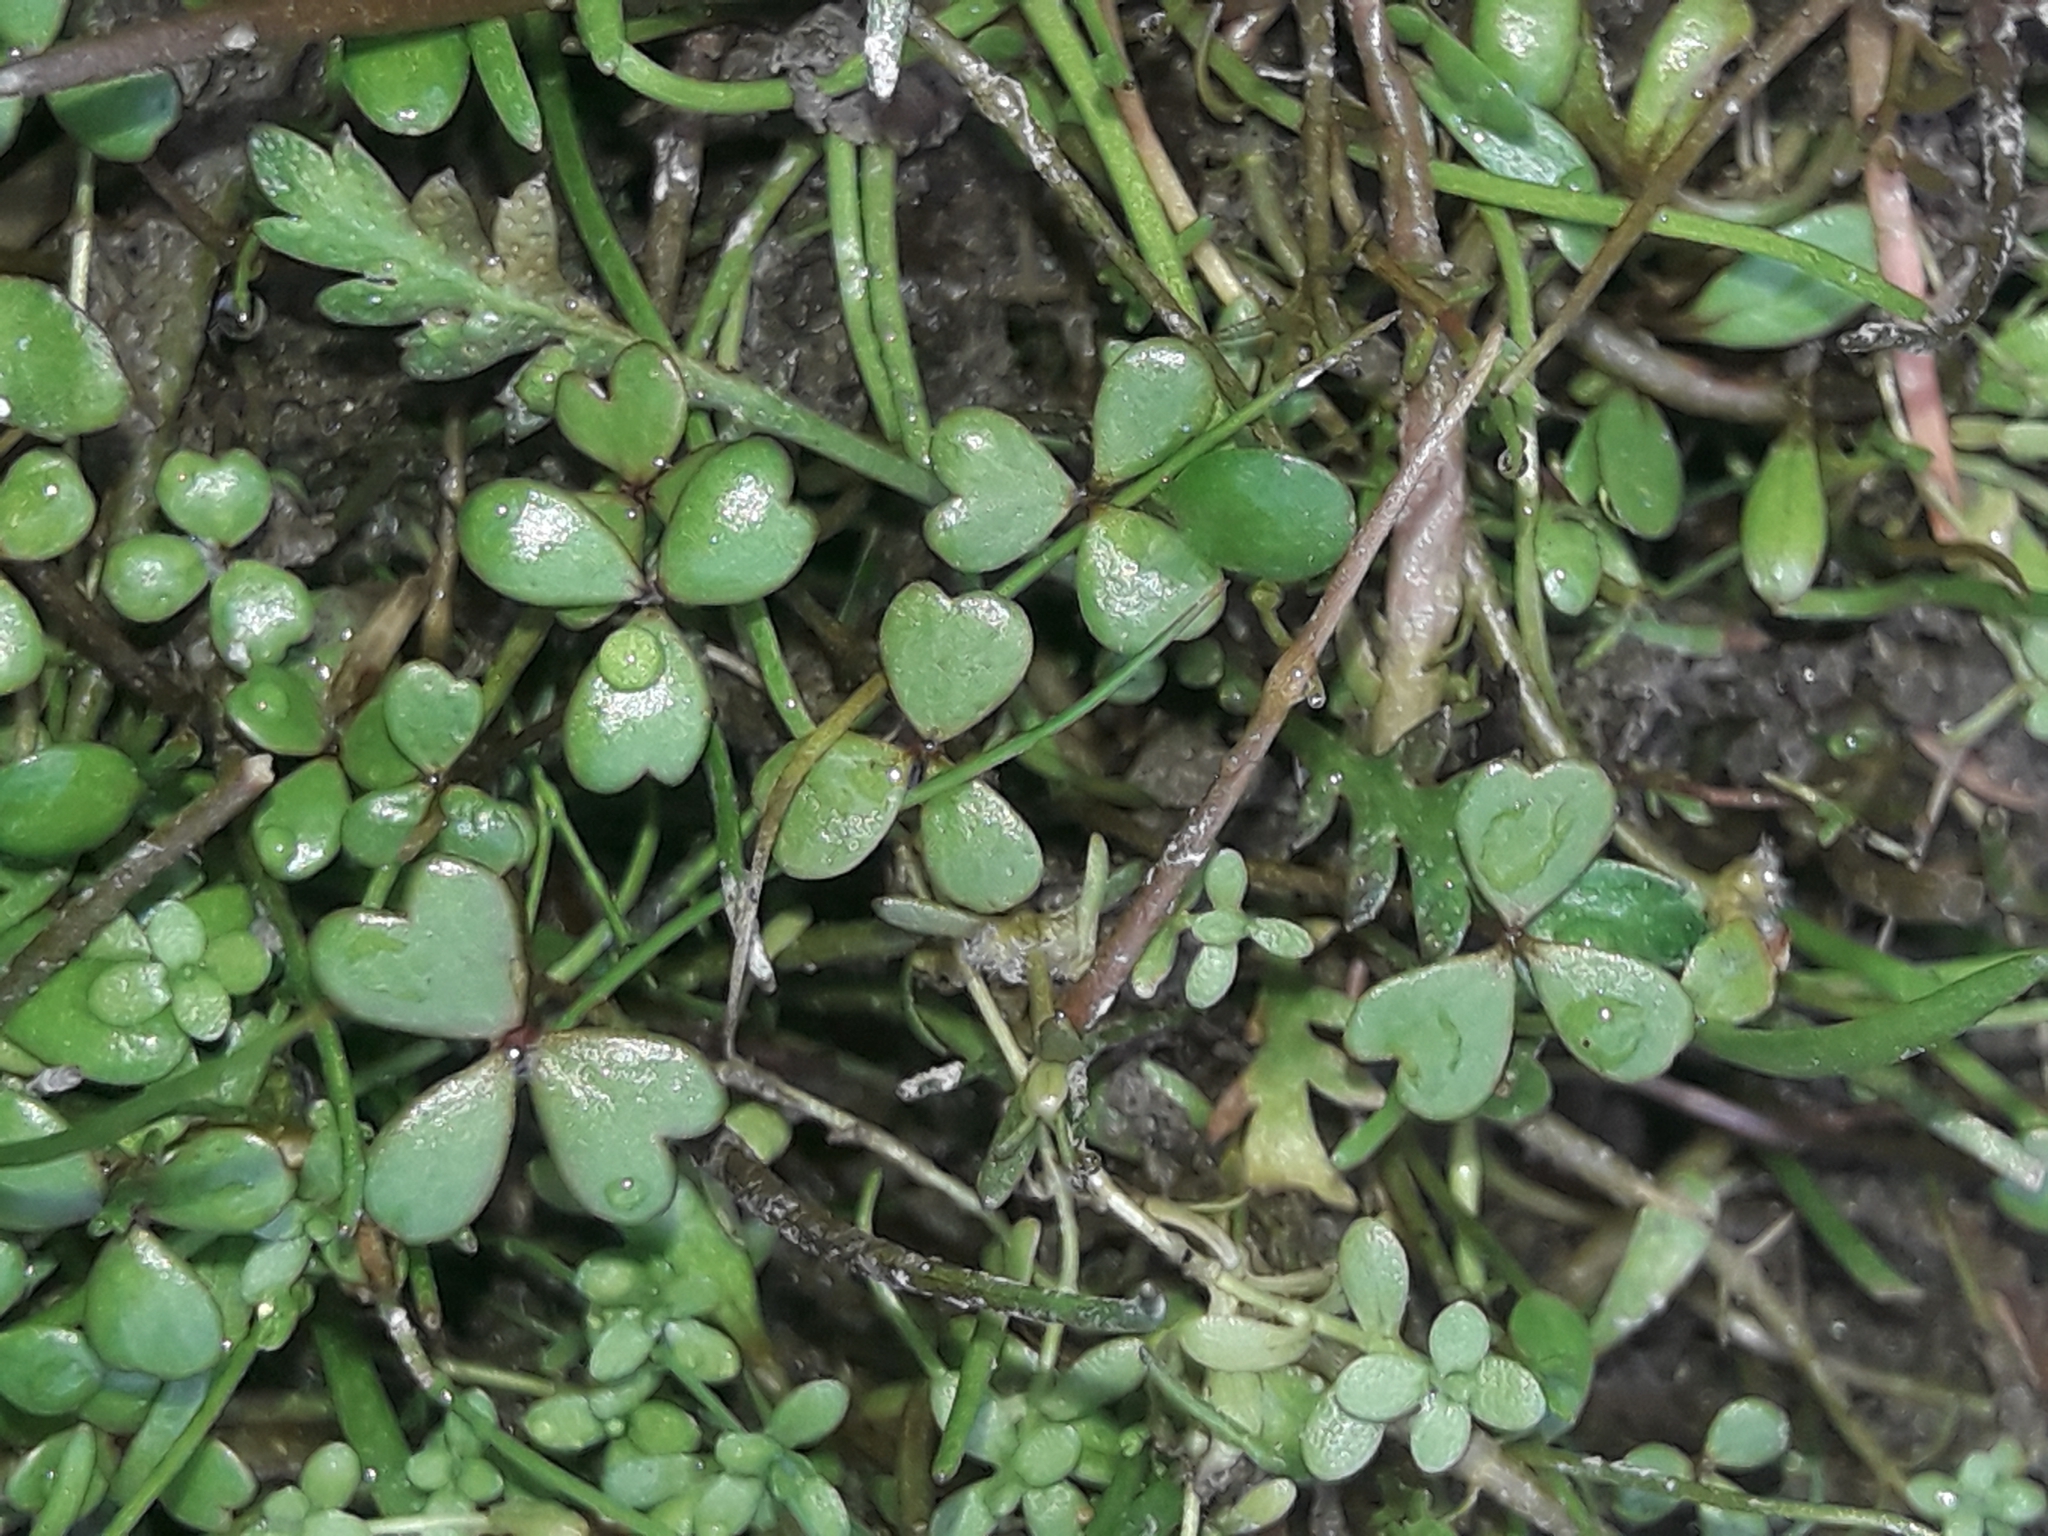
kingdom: Plantae
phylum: Tracheophyta
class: Magnoliopsida
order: Apiales
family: Araliaceae
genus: Hydrocotyle
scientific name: Hydrocotyle sulcata
